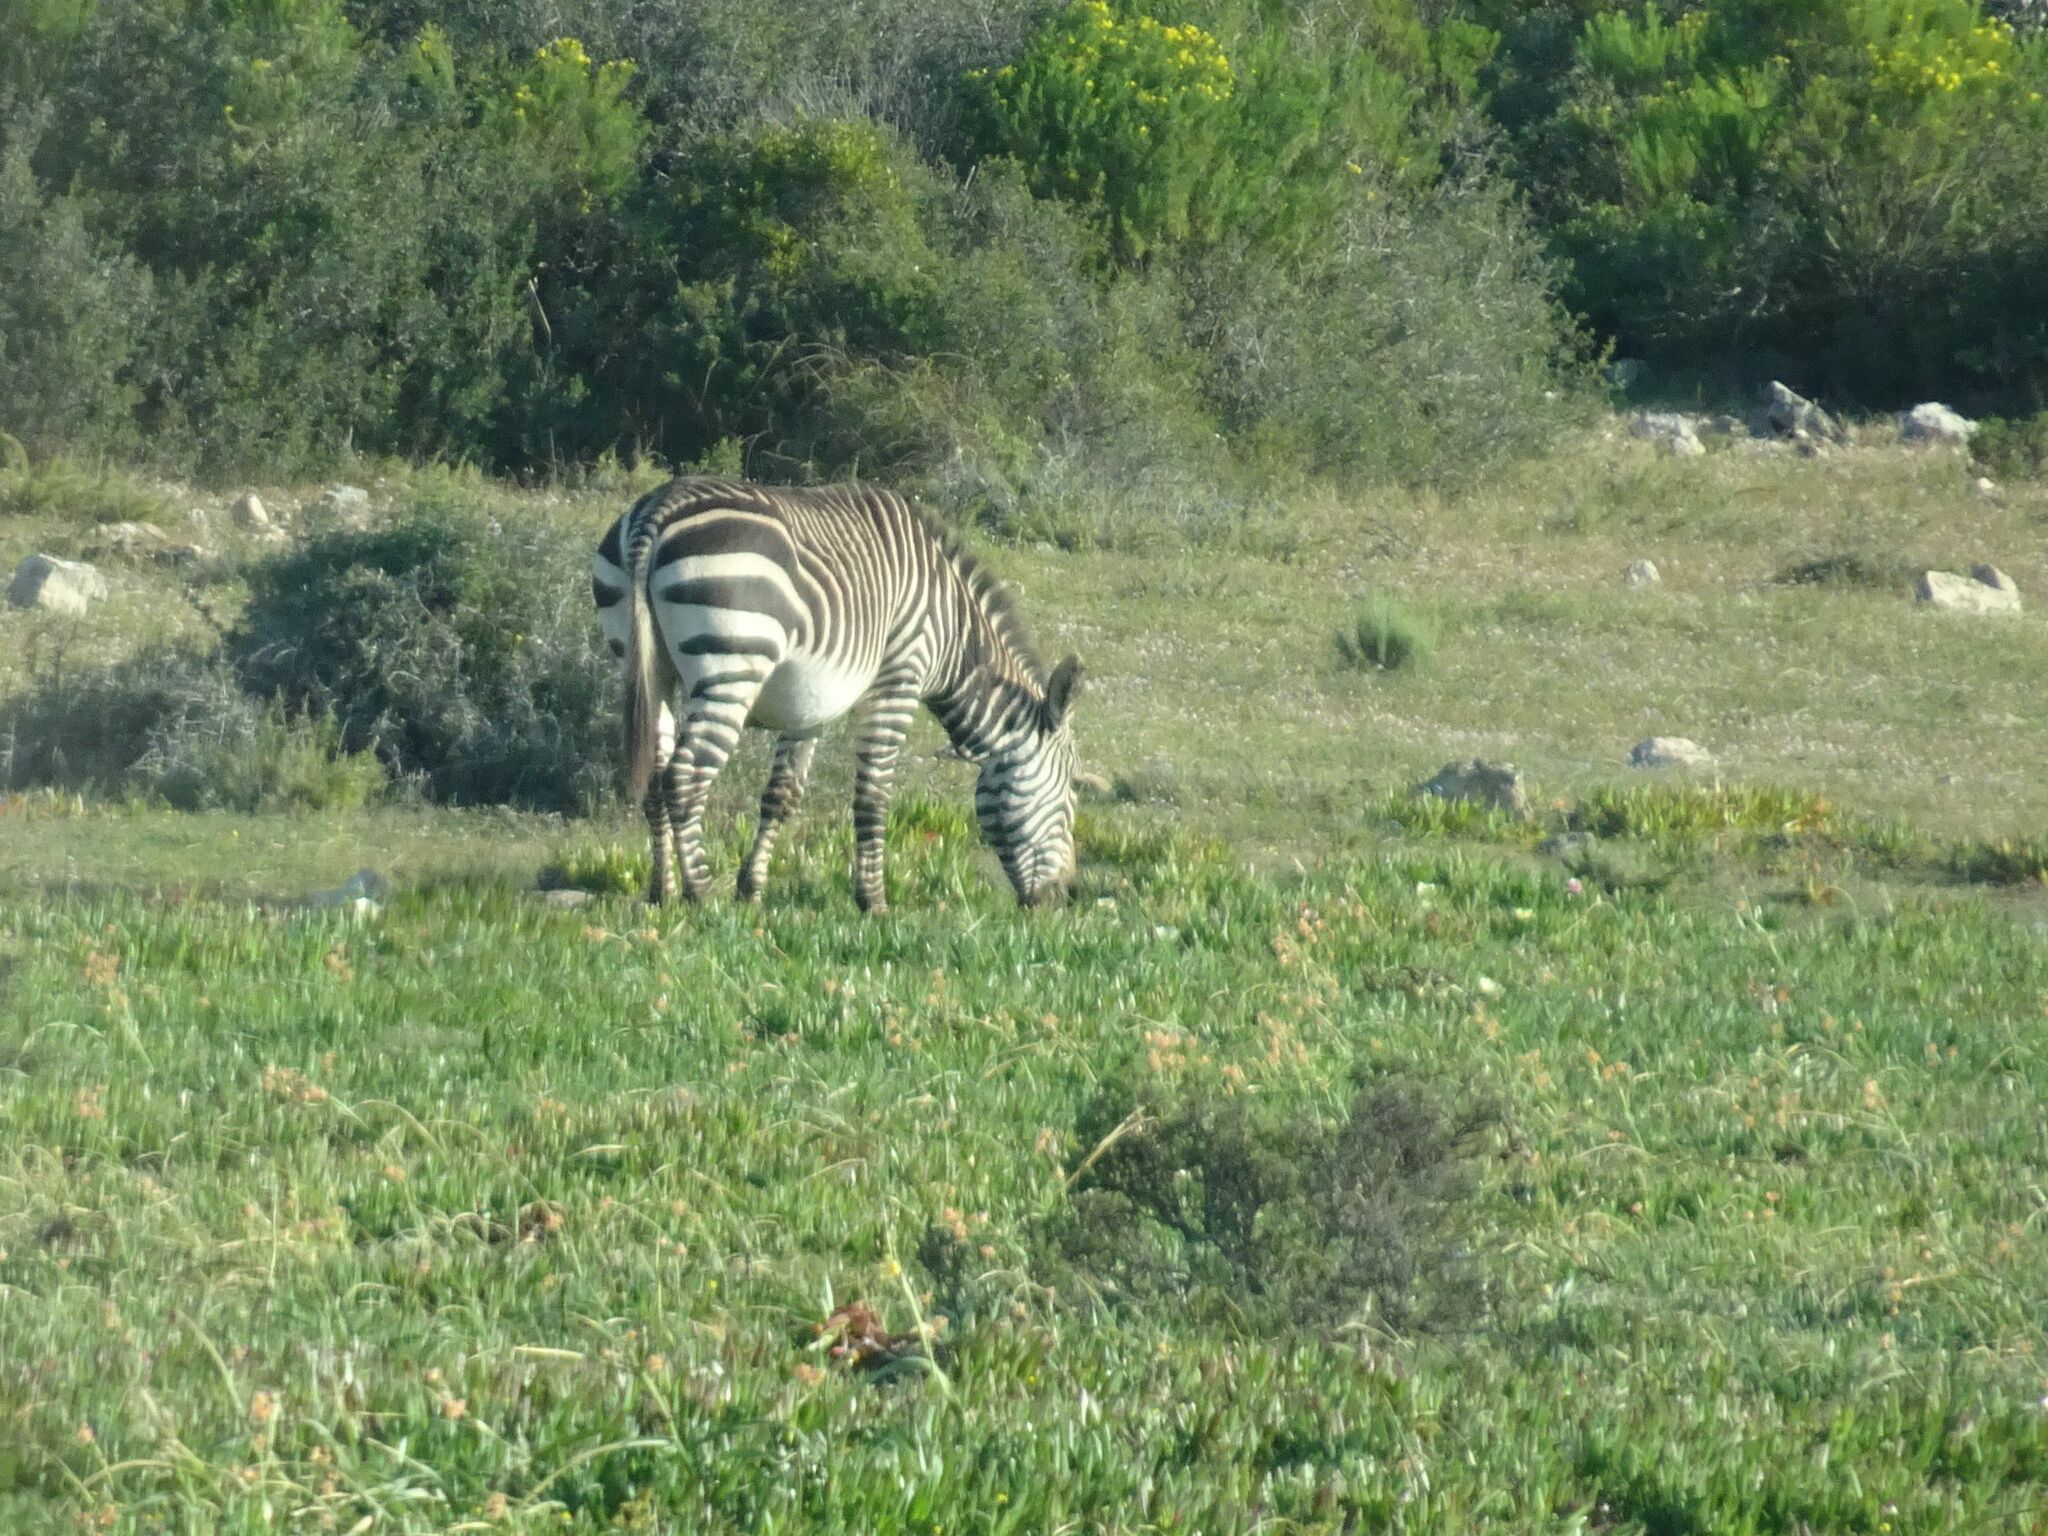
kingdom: Animalia
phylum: Chordata
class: Mammalia
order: Perissodactyla
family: Equidae
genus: Equus
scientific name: Equus zebra
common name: Mountain zebra
